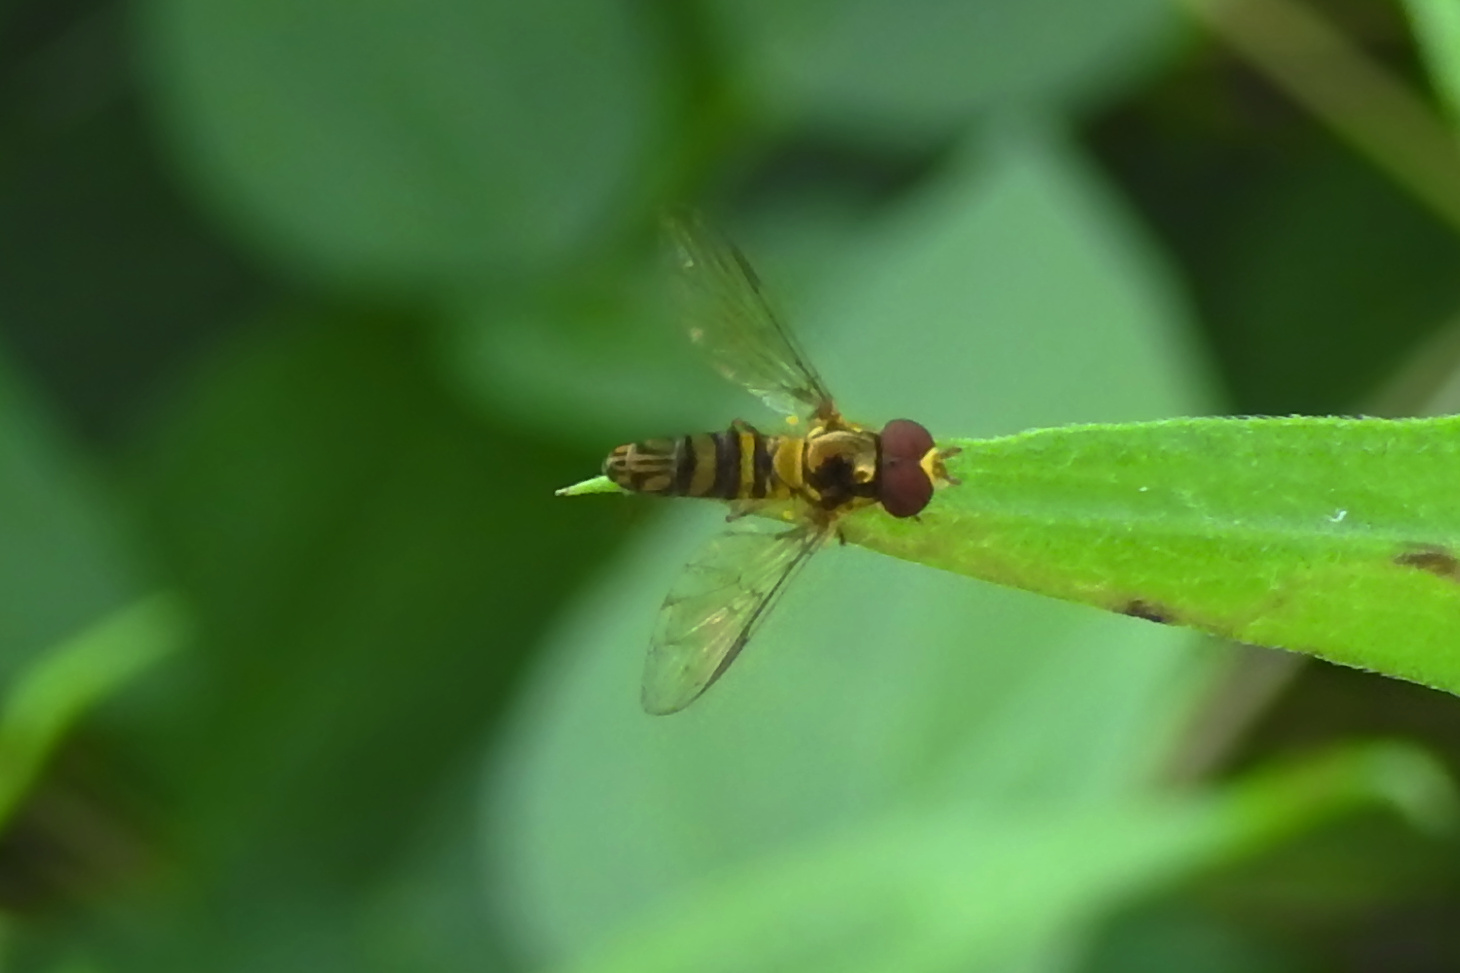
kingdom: Animalia
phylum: Arthropoda
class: Insecta
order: Diptera
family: Syrphidae
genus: Allograpta
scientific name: Allograpta obliqua
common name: Common oblique syrphid
